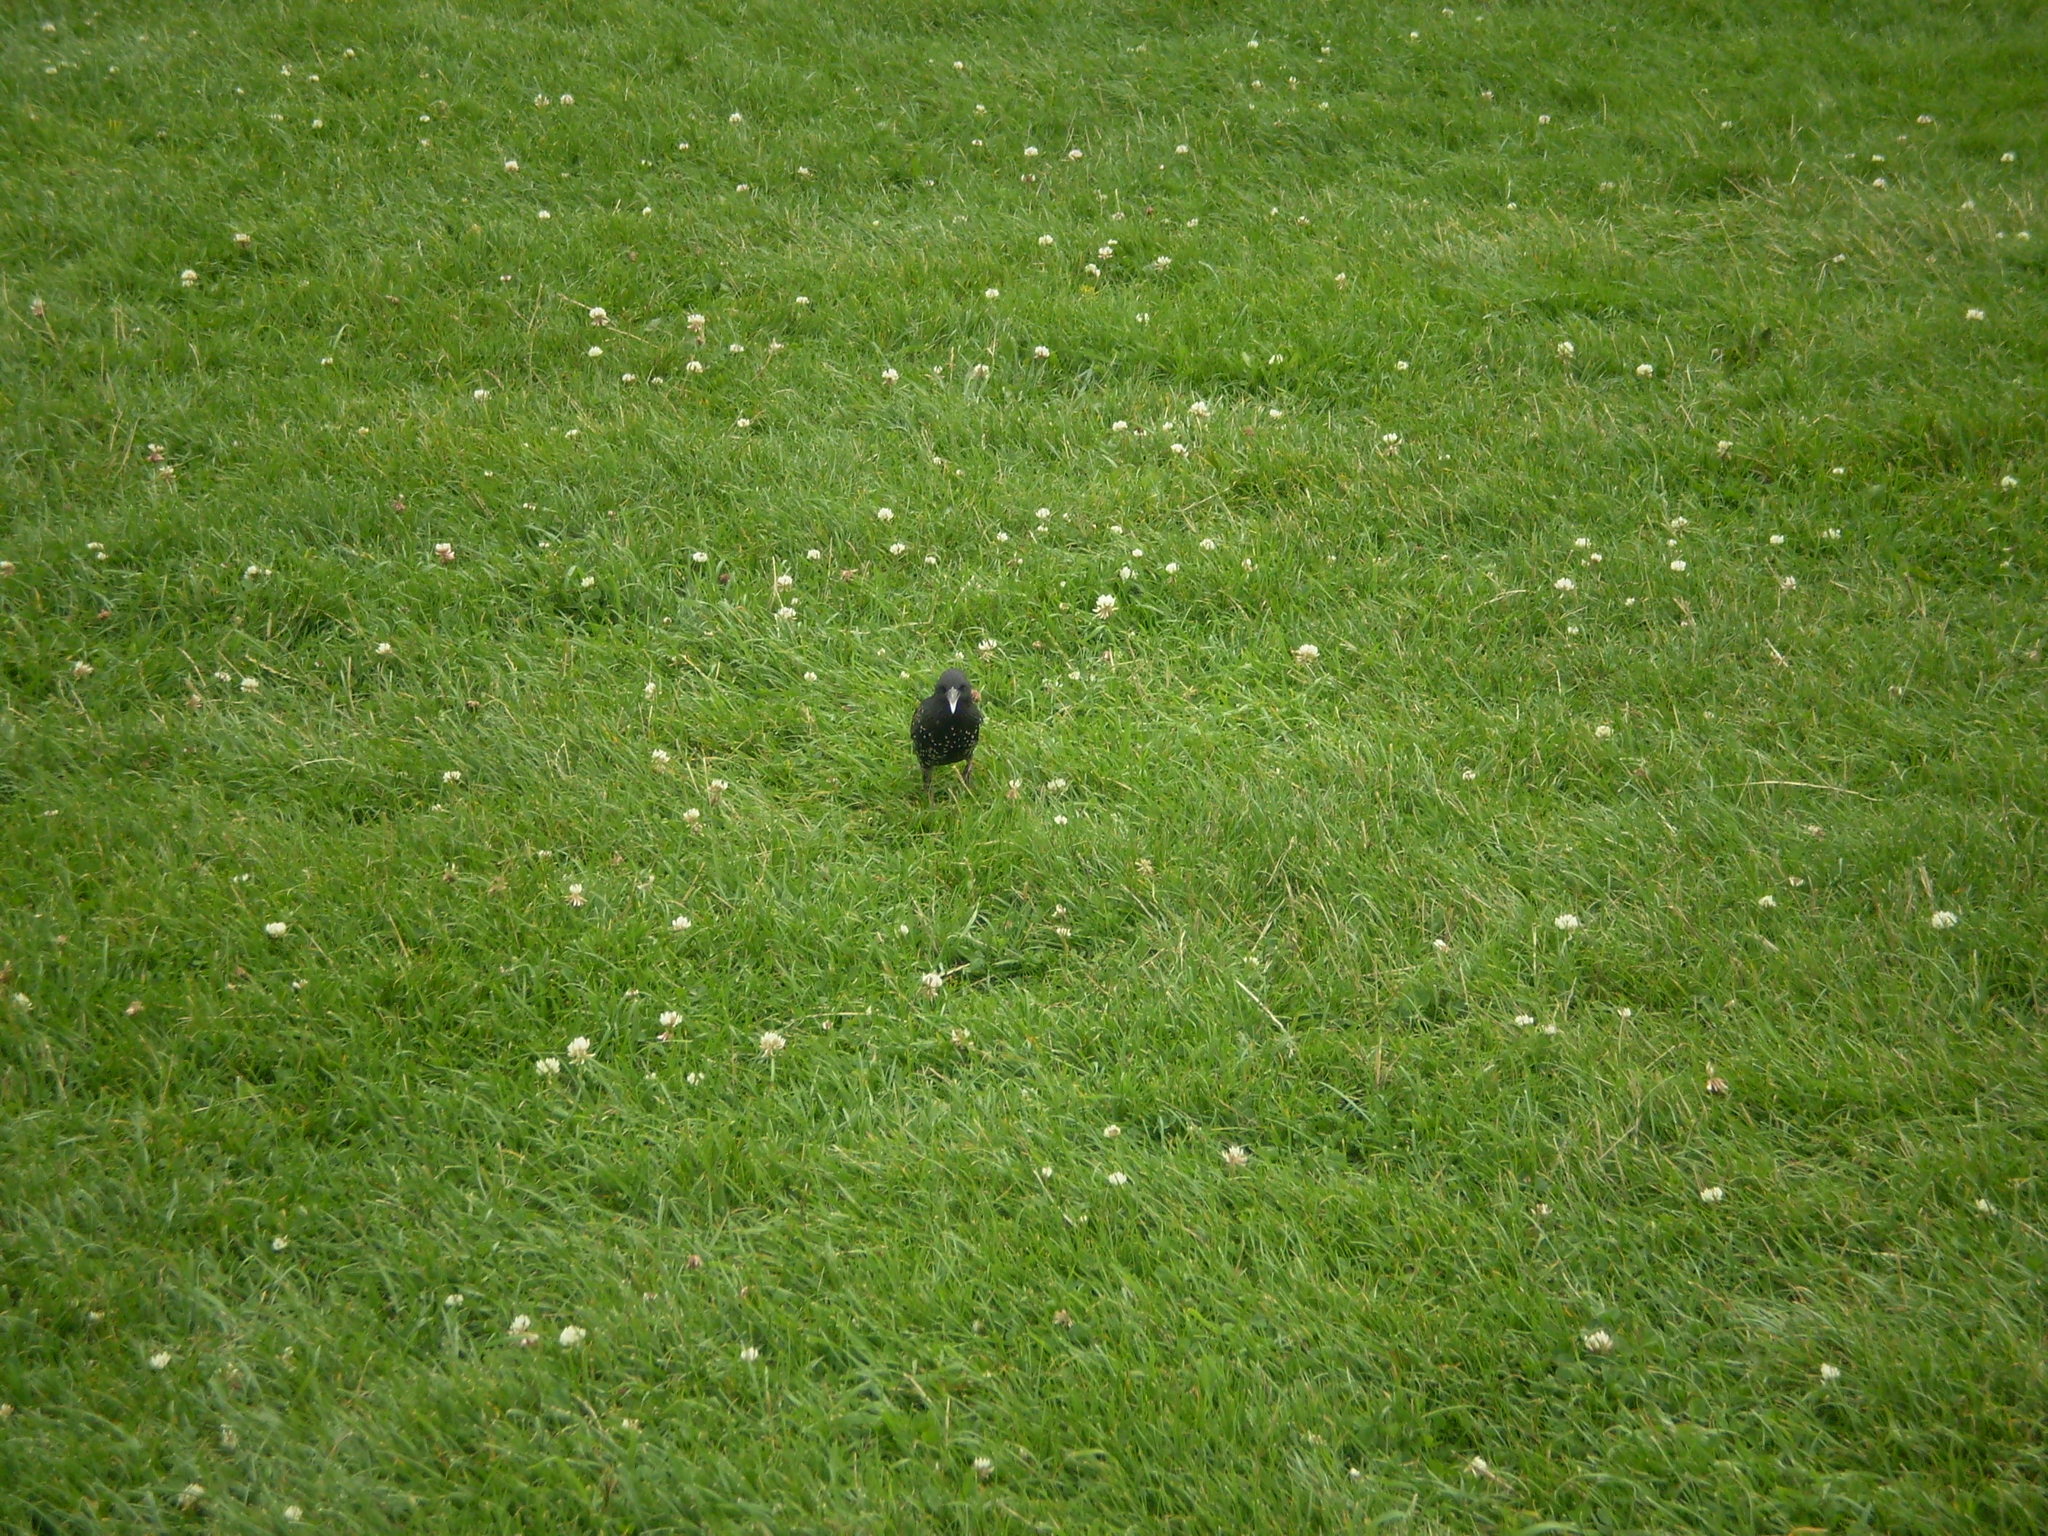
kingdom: Animalia
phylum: Chordata
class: Aves
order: Passeriformes
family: Sturnidae
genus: Sturnus
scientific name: Sturnus vulgaris
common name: Common starling
